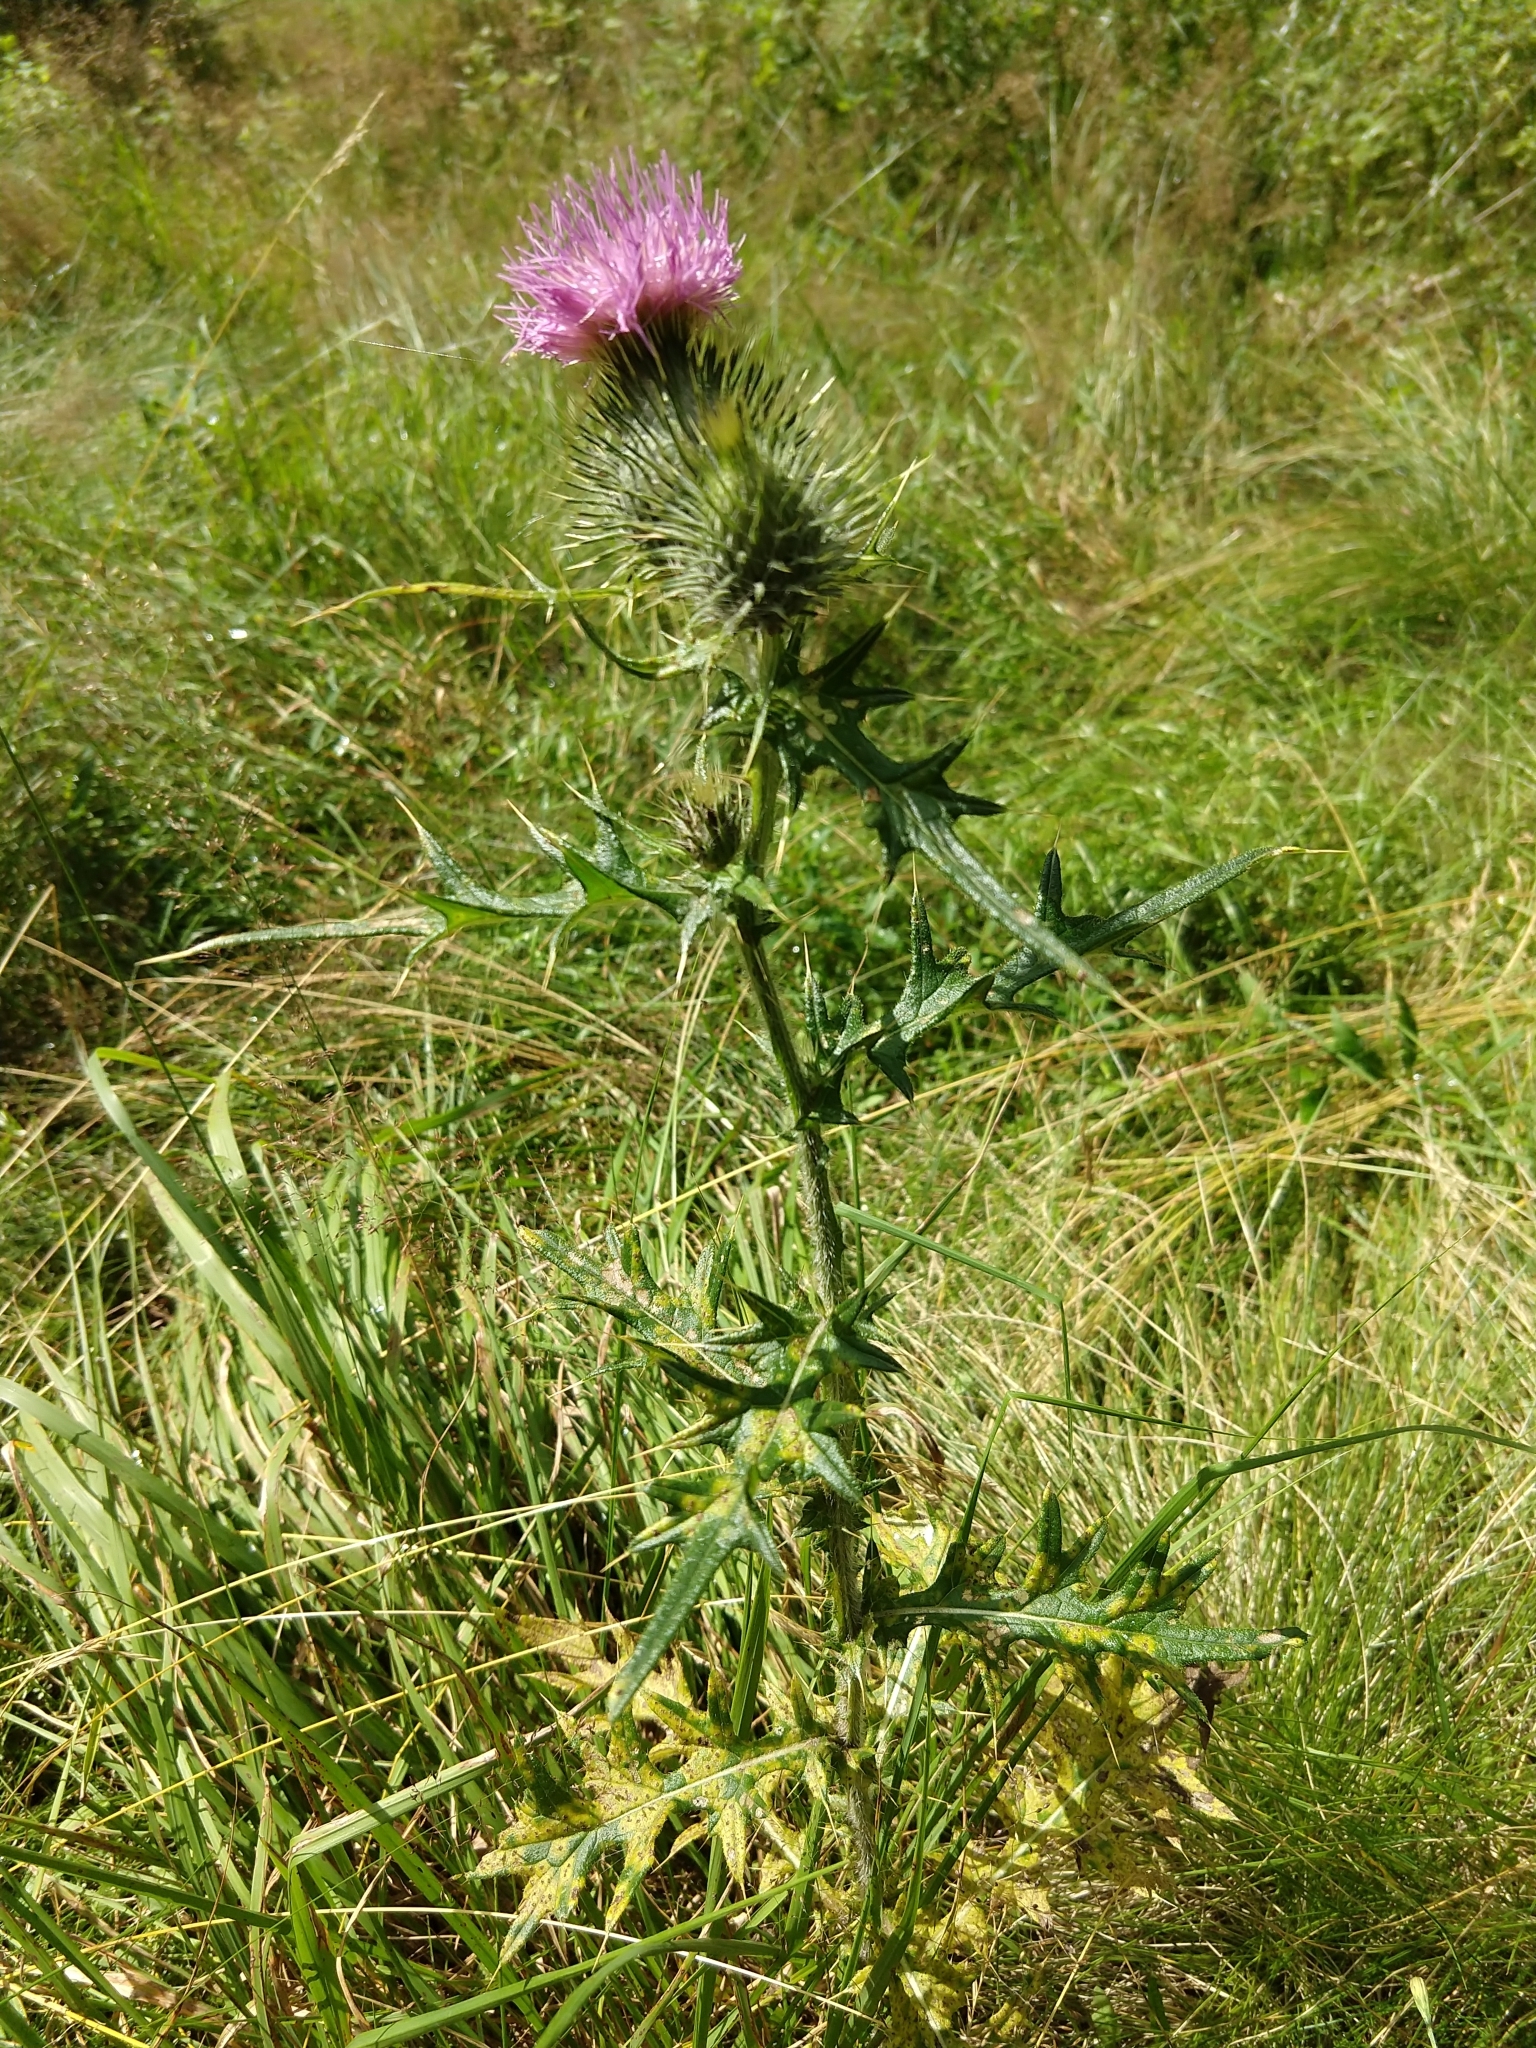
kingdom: Plantae
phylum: Tracheophyta
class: Magnoliopsida
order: Asterales
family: Asteraceae
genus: Cirsium
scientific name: Cirsium vulgare
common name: Bull thistle
